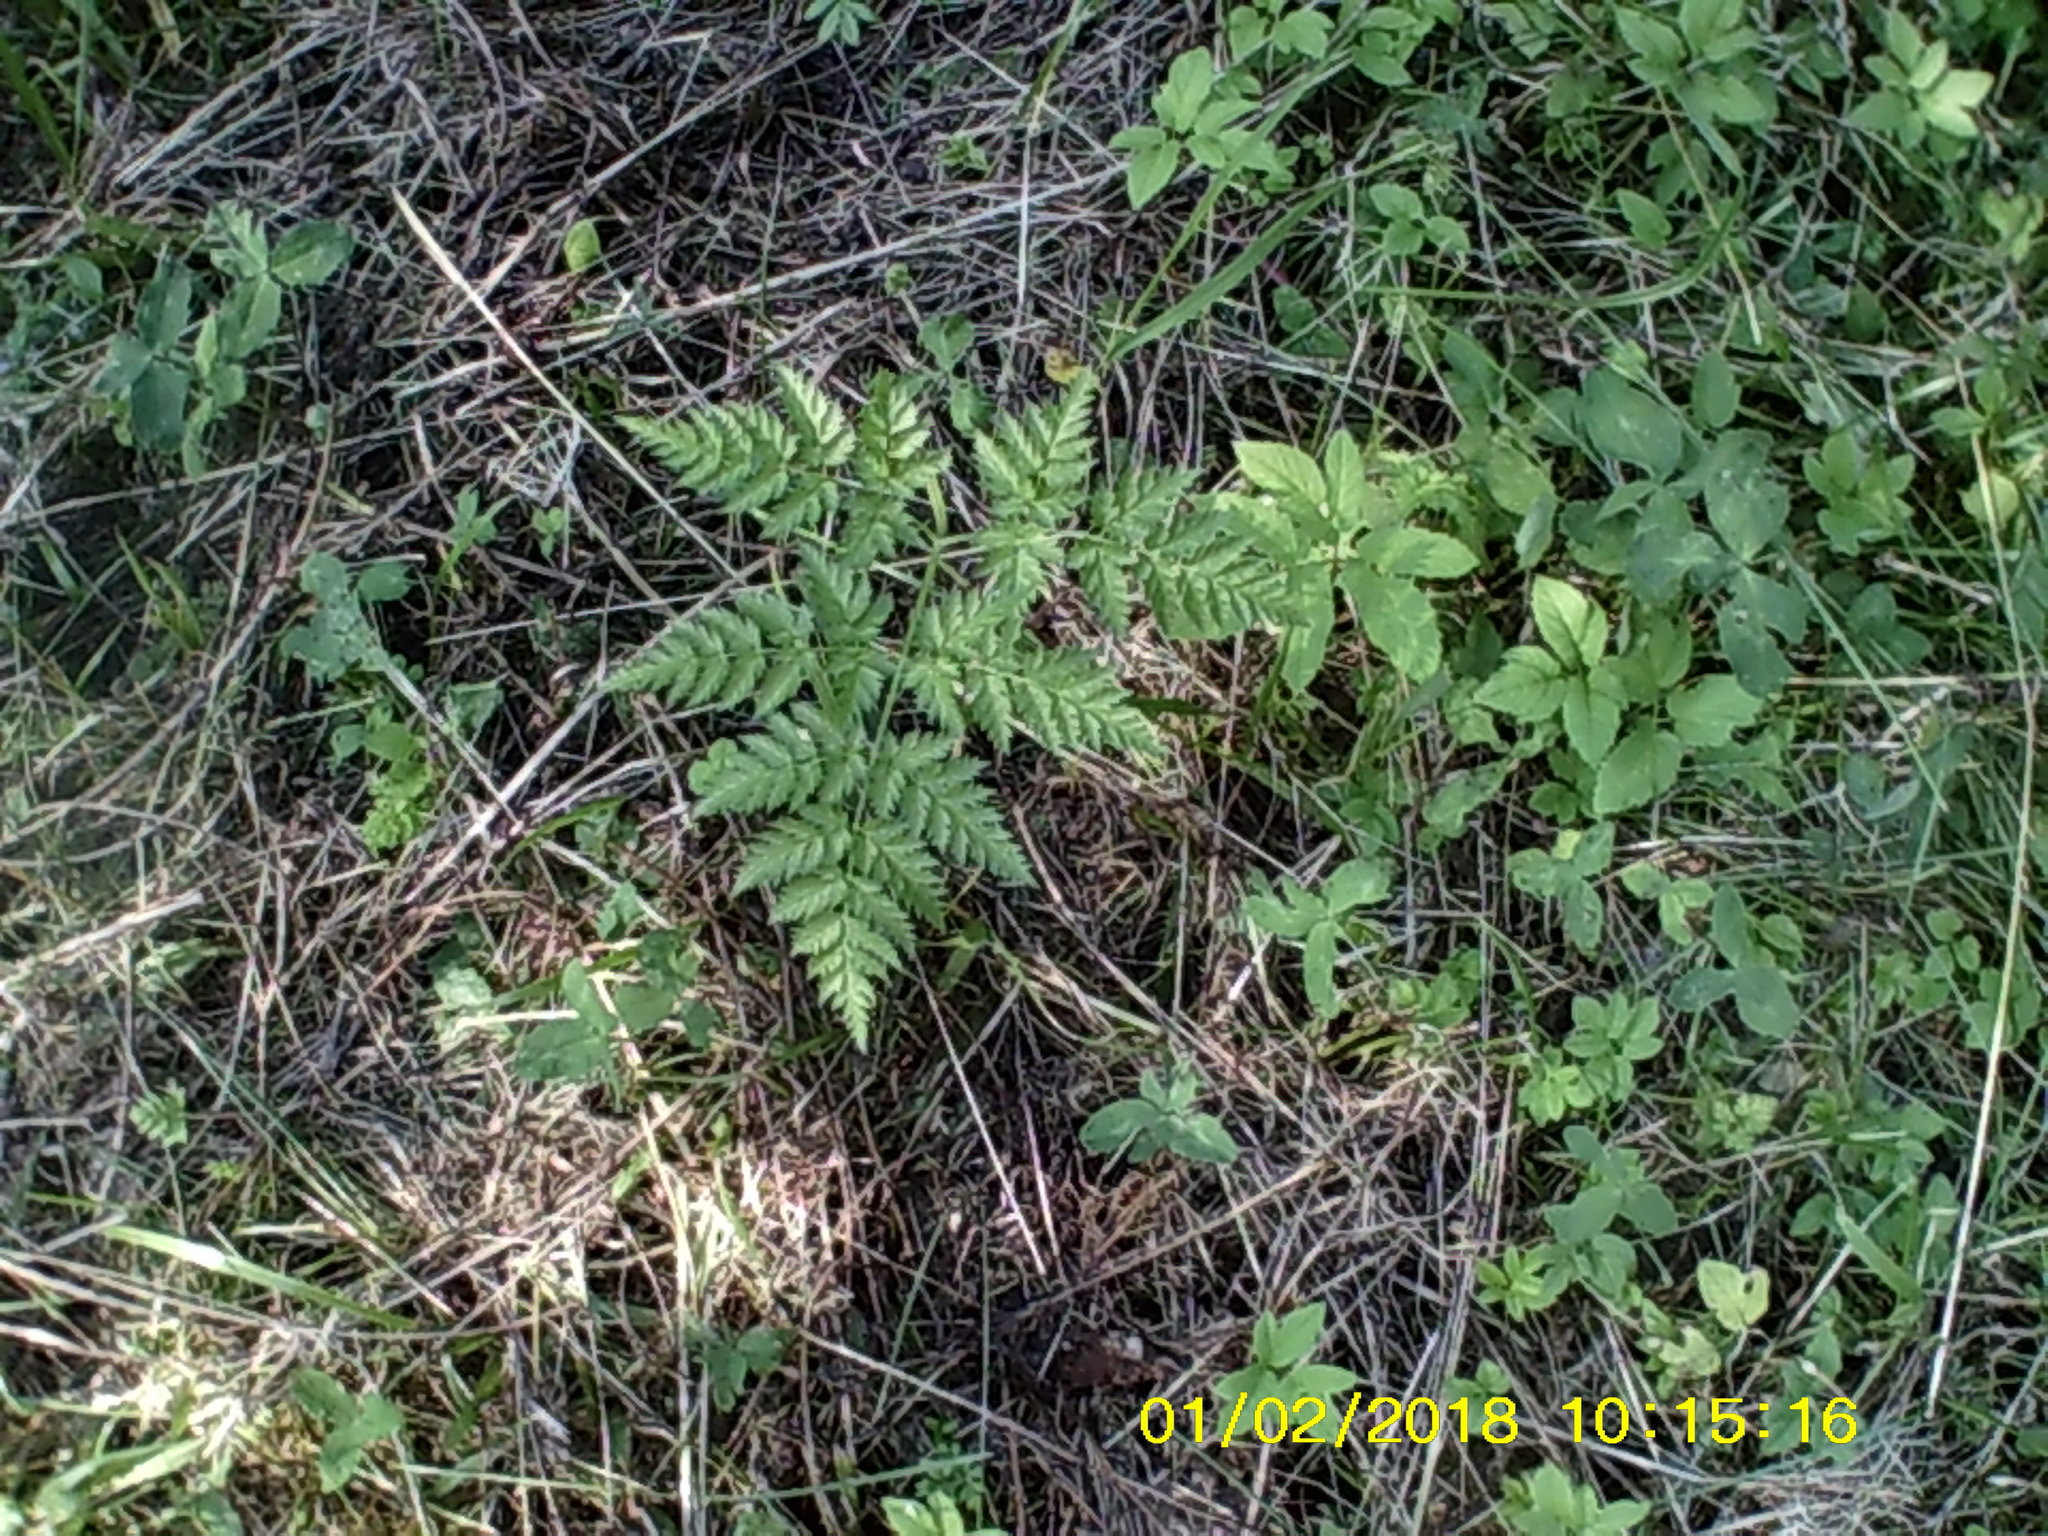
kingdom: Plantae
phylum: Tracheophyta
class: Magnoliopsida
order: Apiales
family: Apiaceae
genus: Anthriscus
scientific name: Anthriscus sylvestris
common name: Cow parsley
